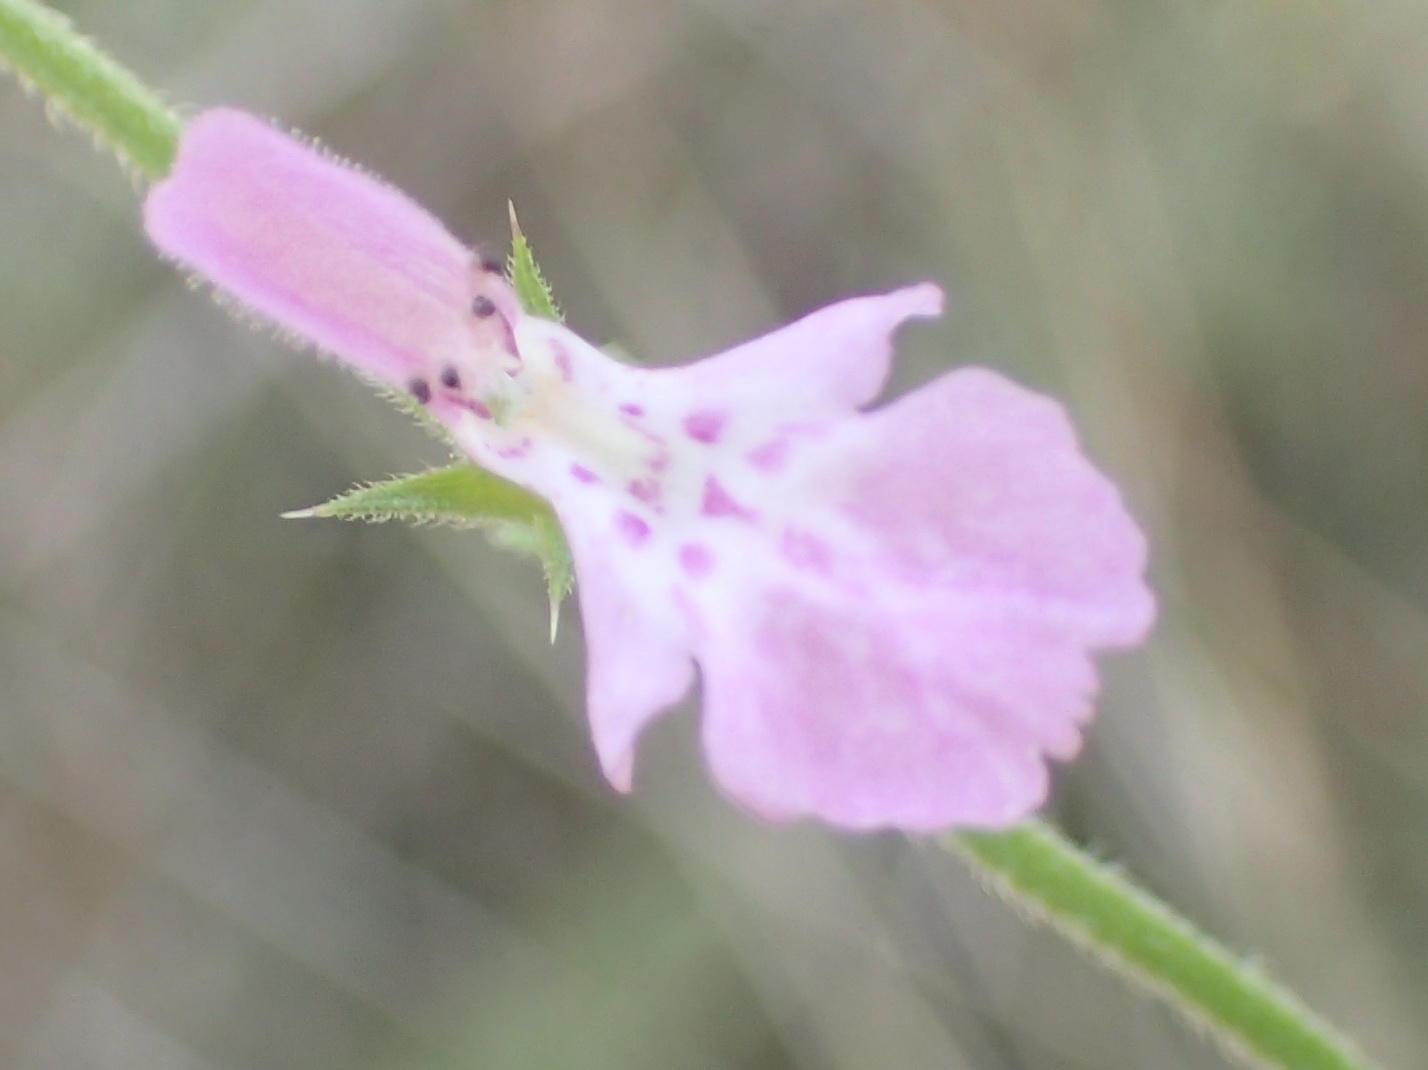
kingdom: Plantae
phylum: Tracheophyta
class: Magnoliopsida
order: Lamiales
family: Lamiaceae
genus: Stachys
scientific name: Stachys aethiopica
